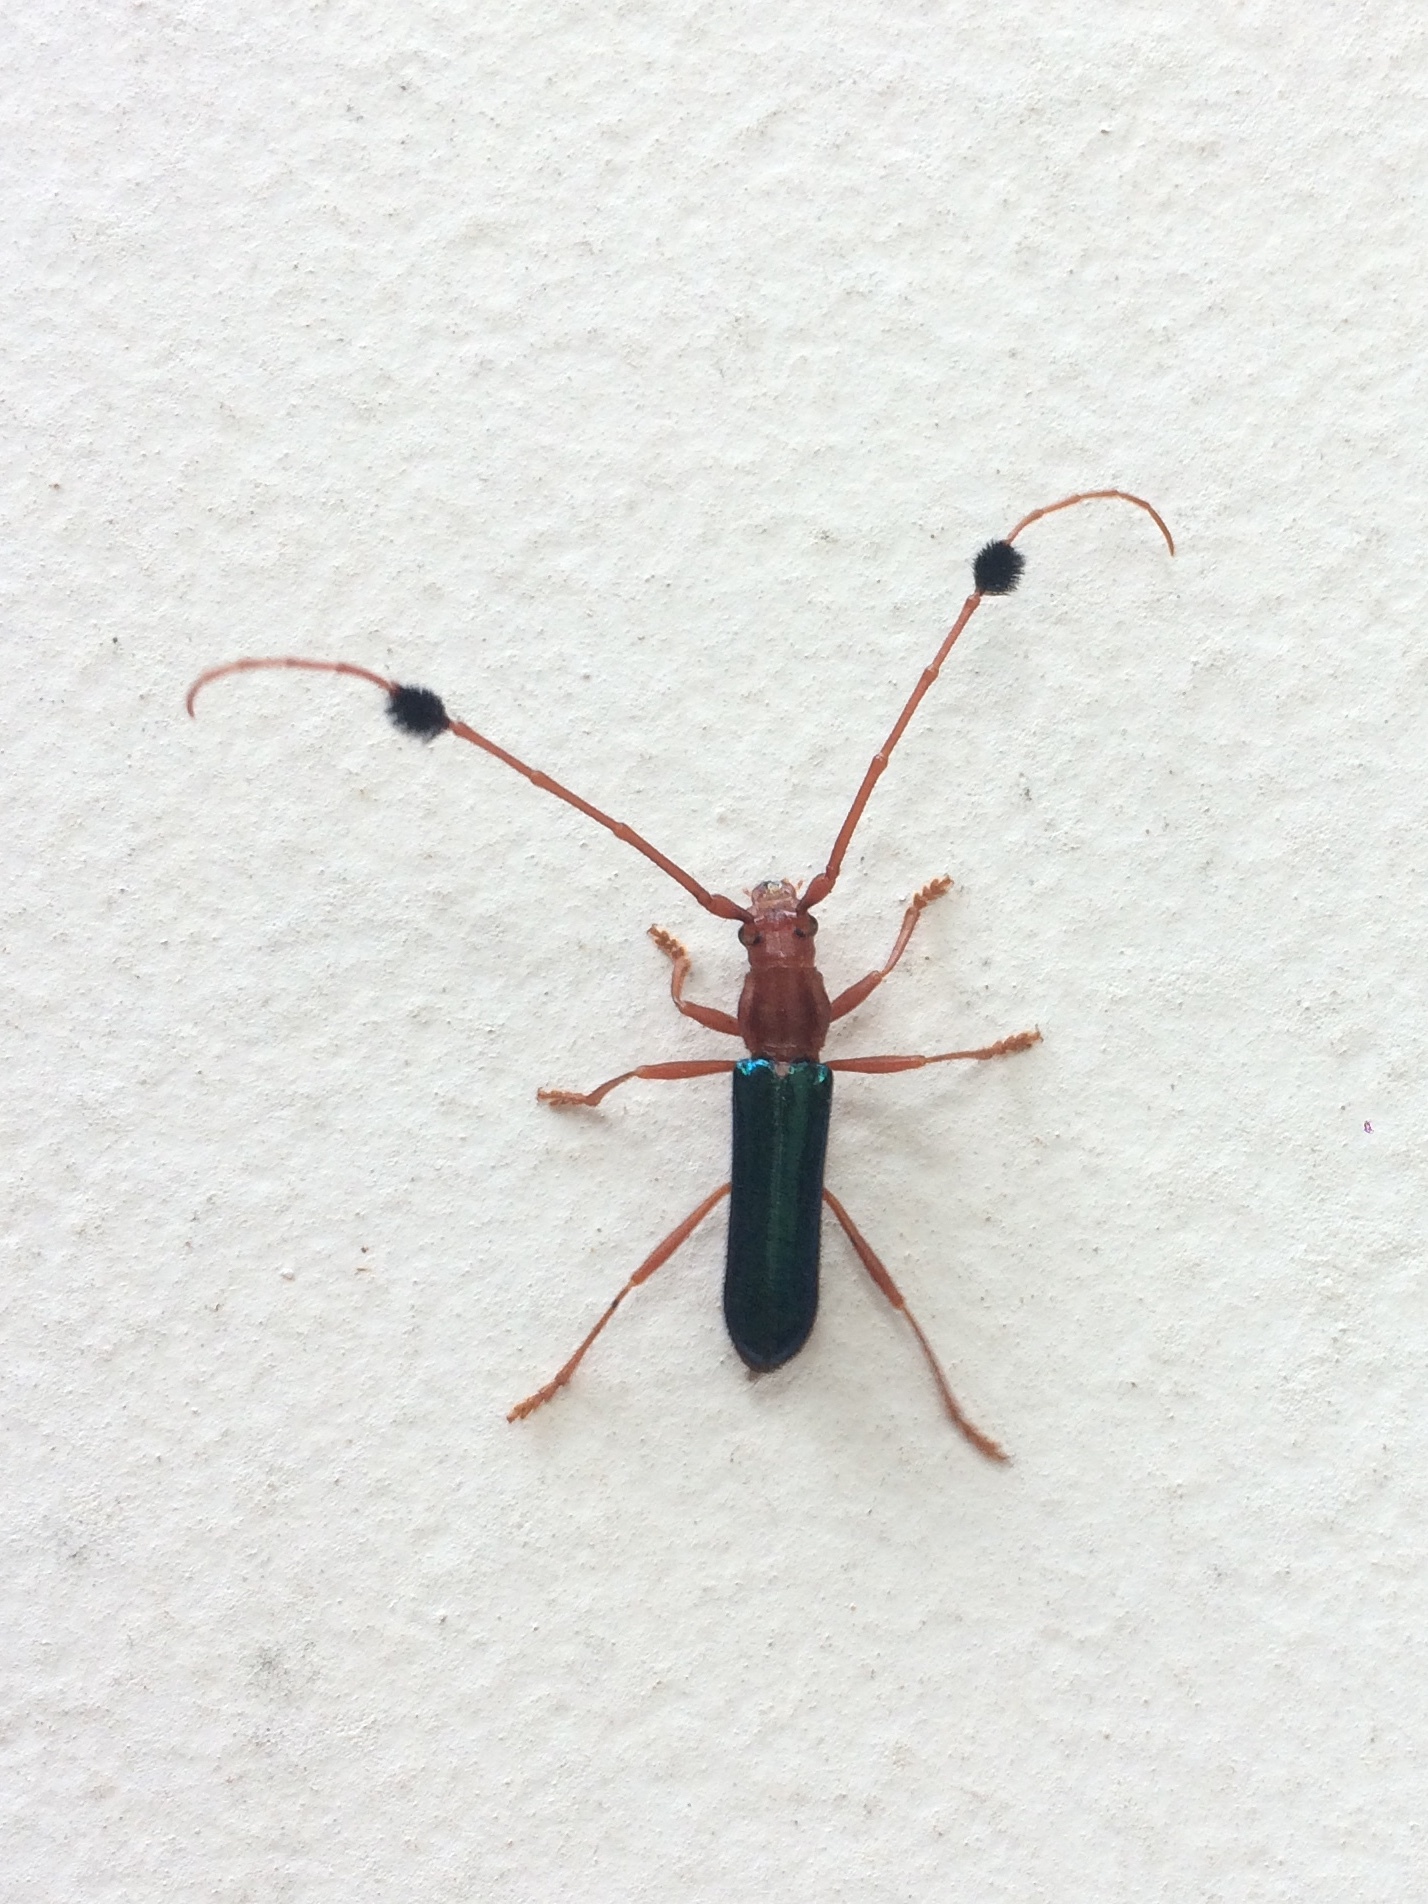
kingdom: Animalia
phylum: Arthropoda
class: Insecta
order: Coleoptera
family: Cerambycidae
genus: Compsocerus
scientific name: Compsocerus violaceus
